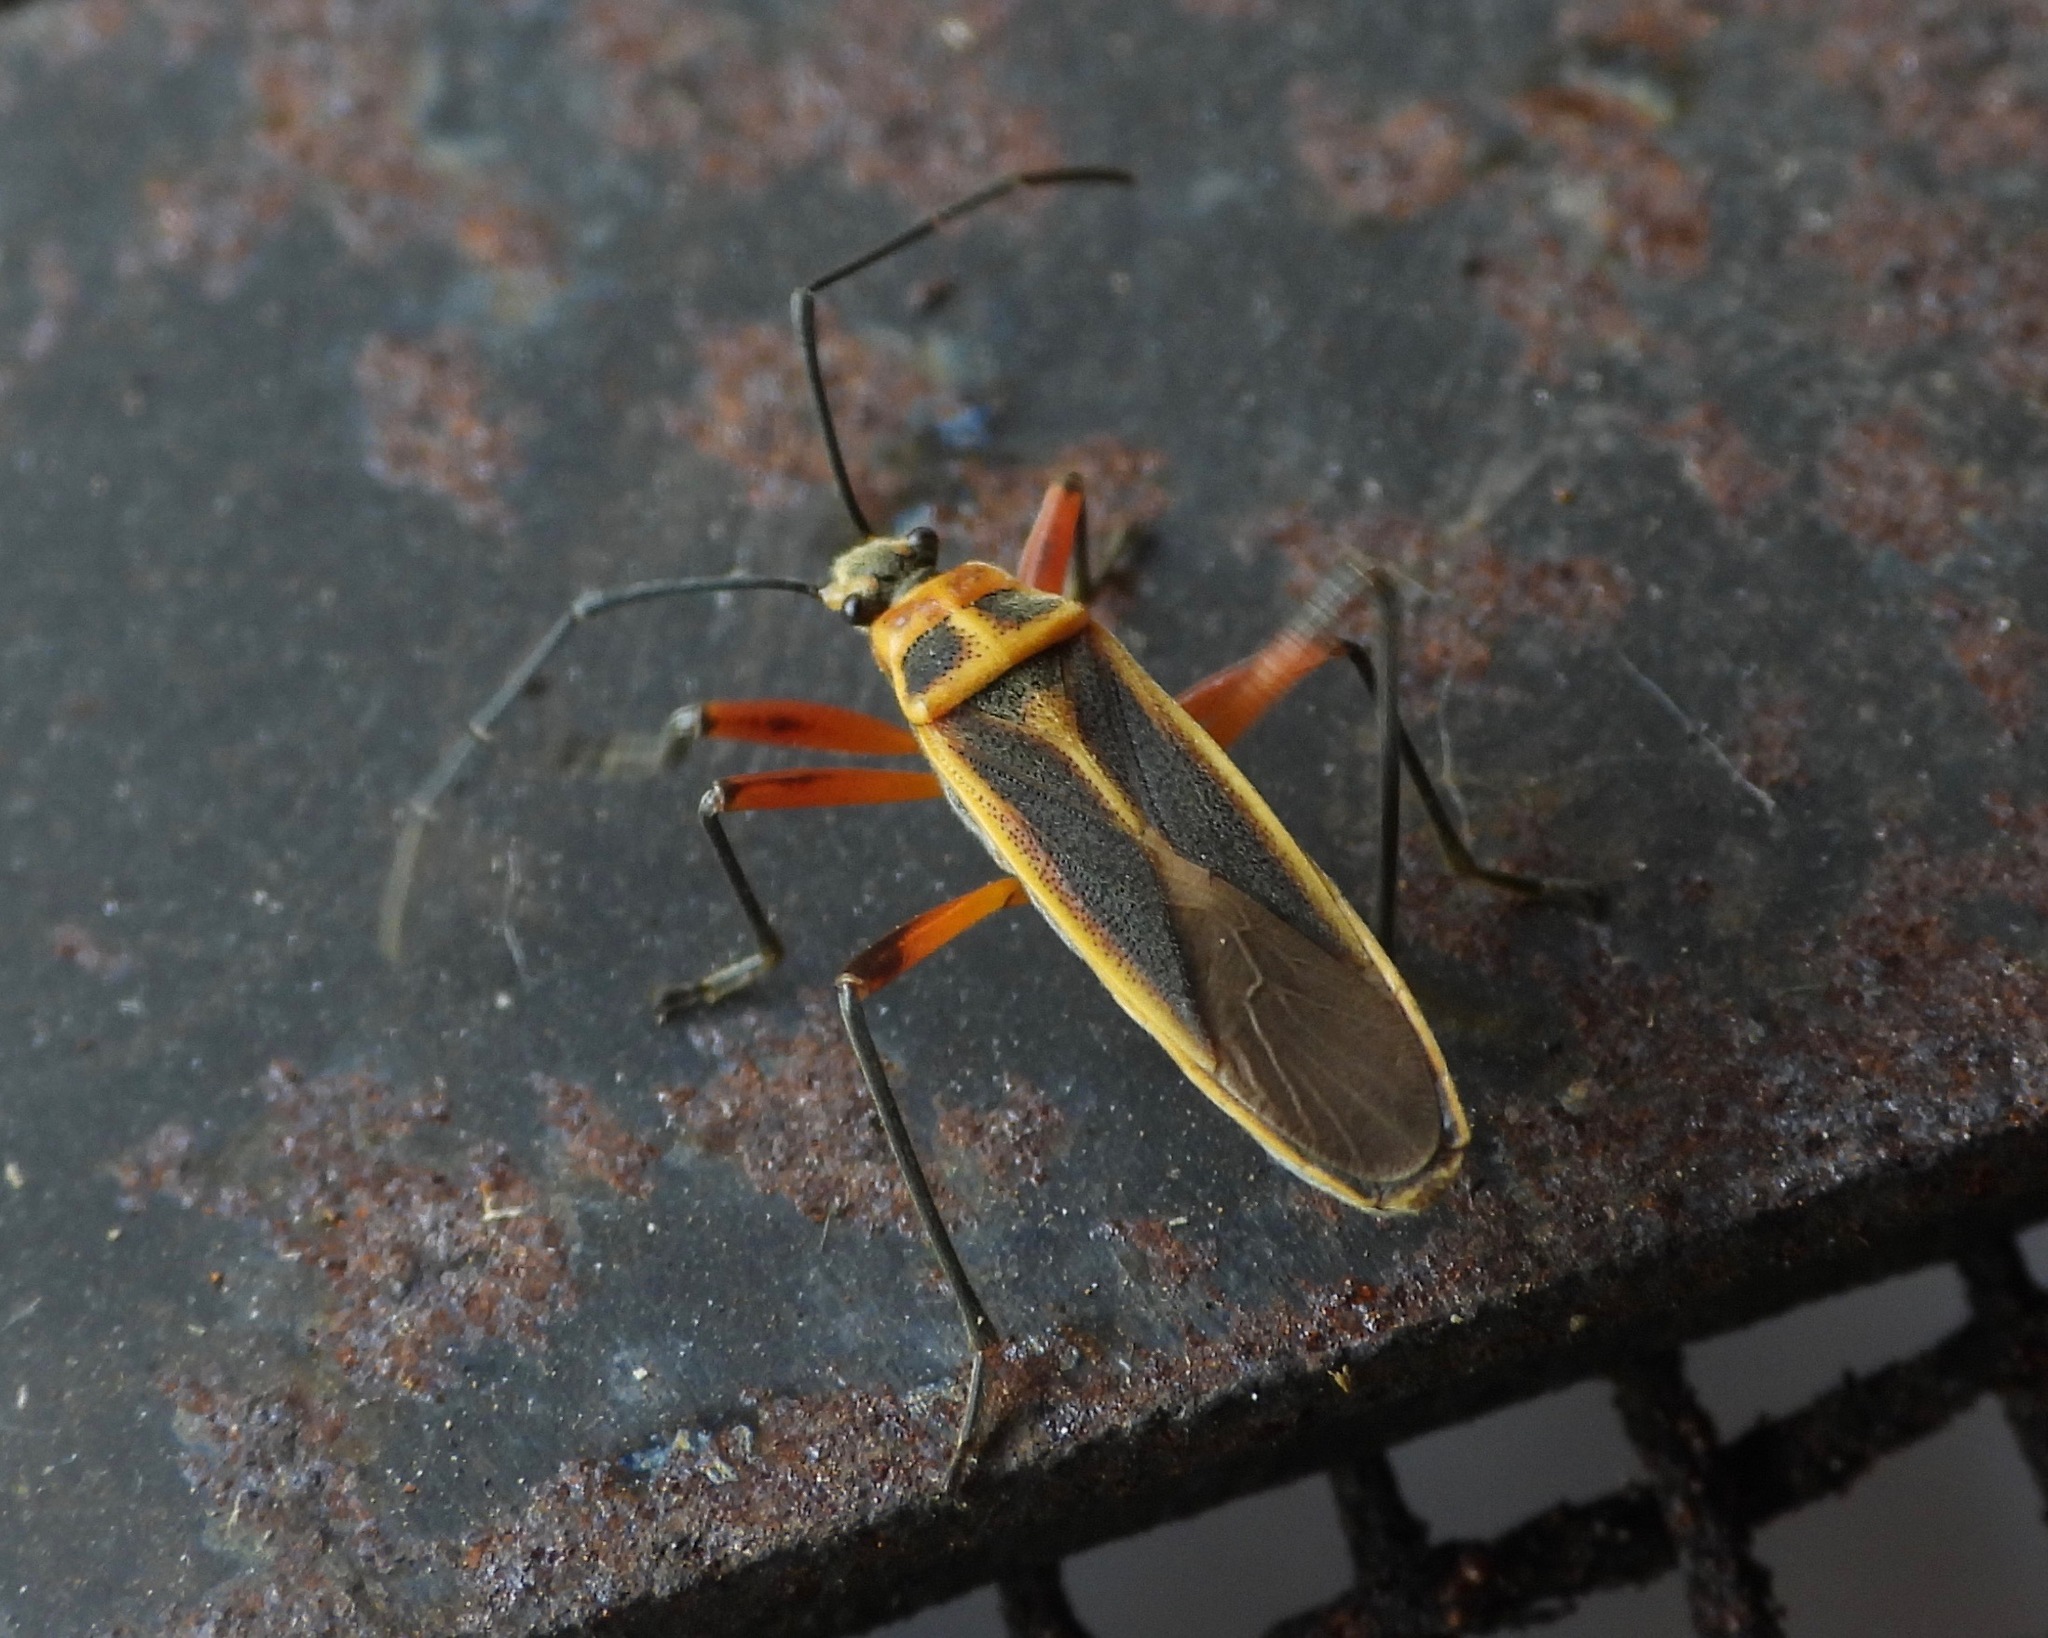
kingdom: Animalia
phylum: Arthropoda
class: Insecta
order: Hemiptera
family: Largidae
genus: Stenomacra
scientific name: Stenomacra marginella
